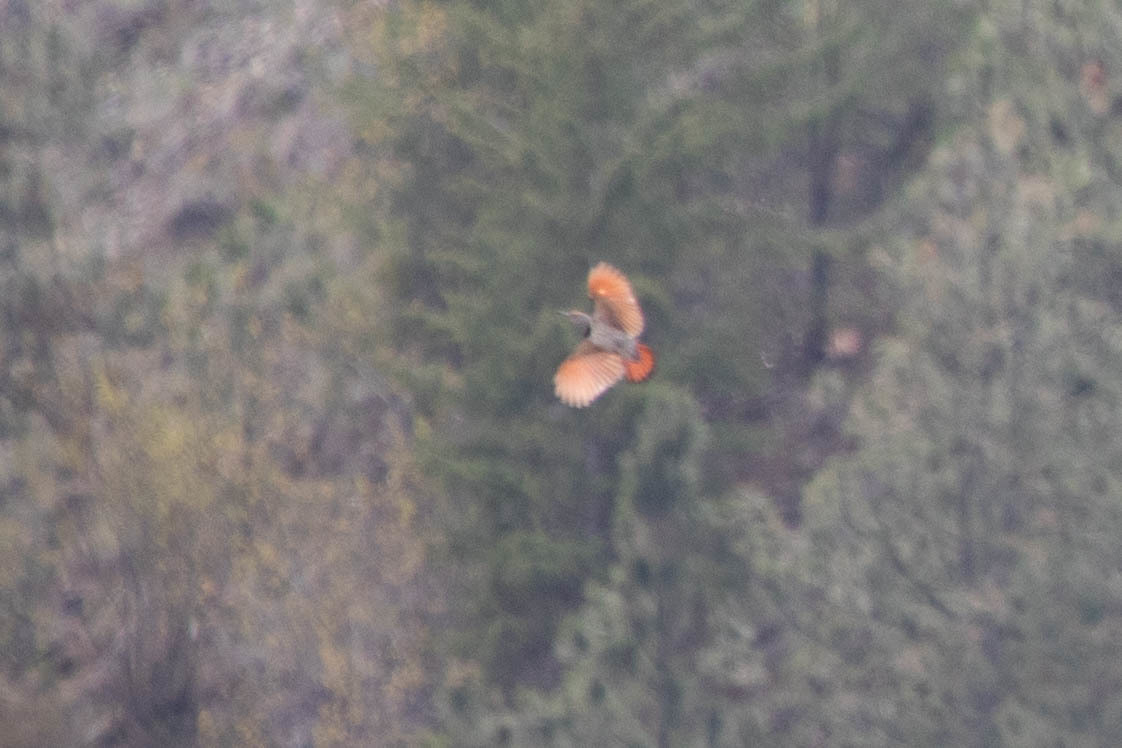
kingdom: Animalia
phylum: Chordata
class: Aves
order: Piciformes
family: Picidae
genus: Colaptes
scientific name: Colaptes auratus
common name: Northern flicker
